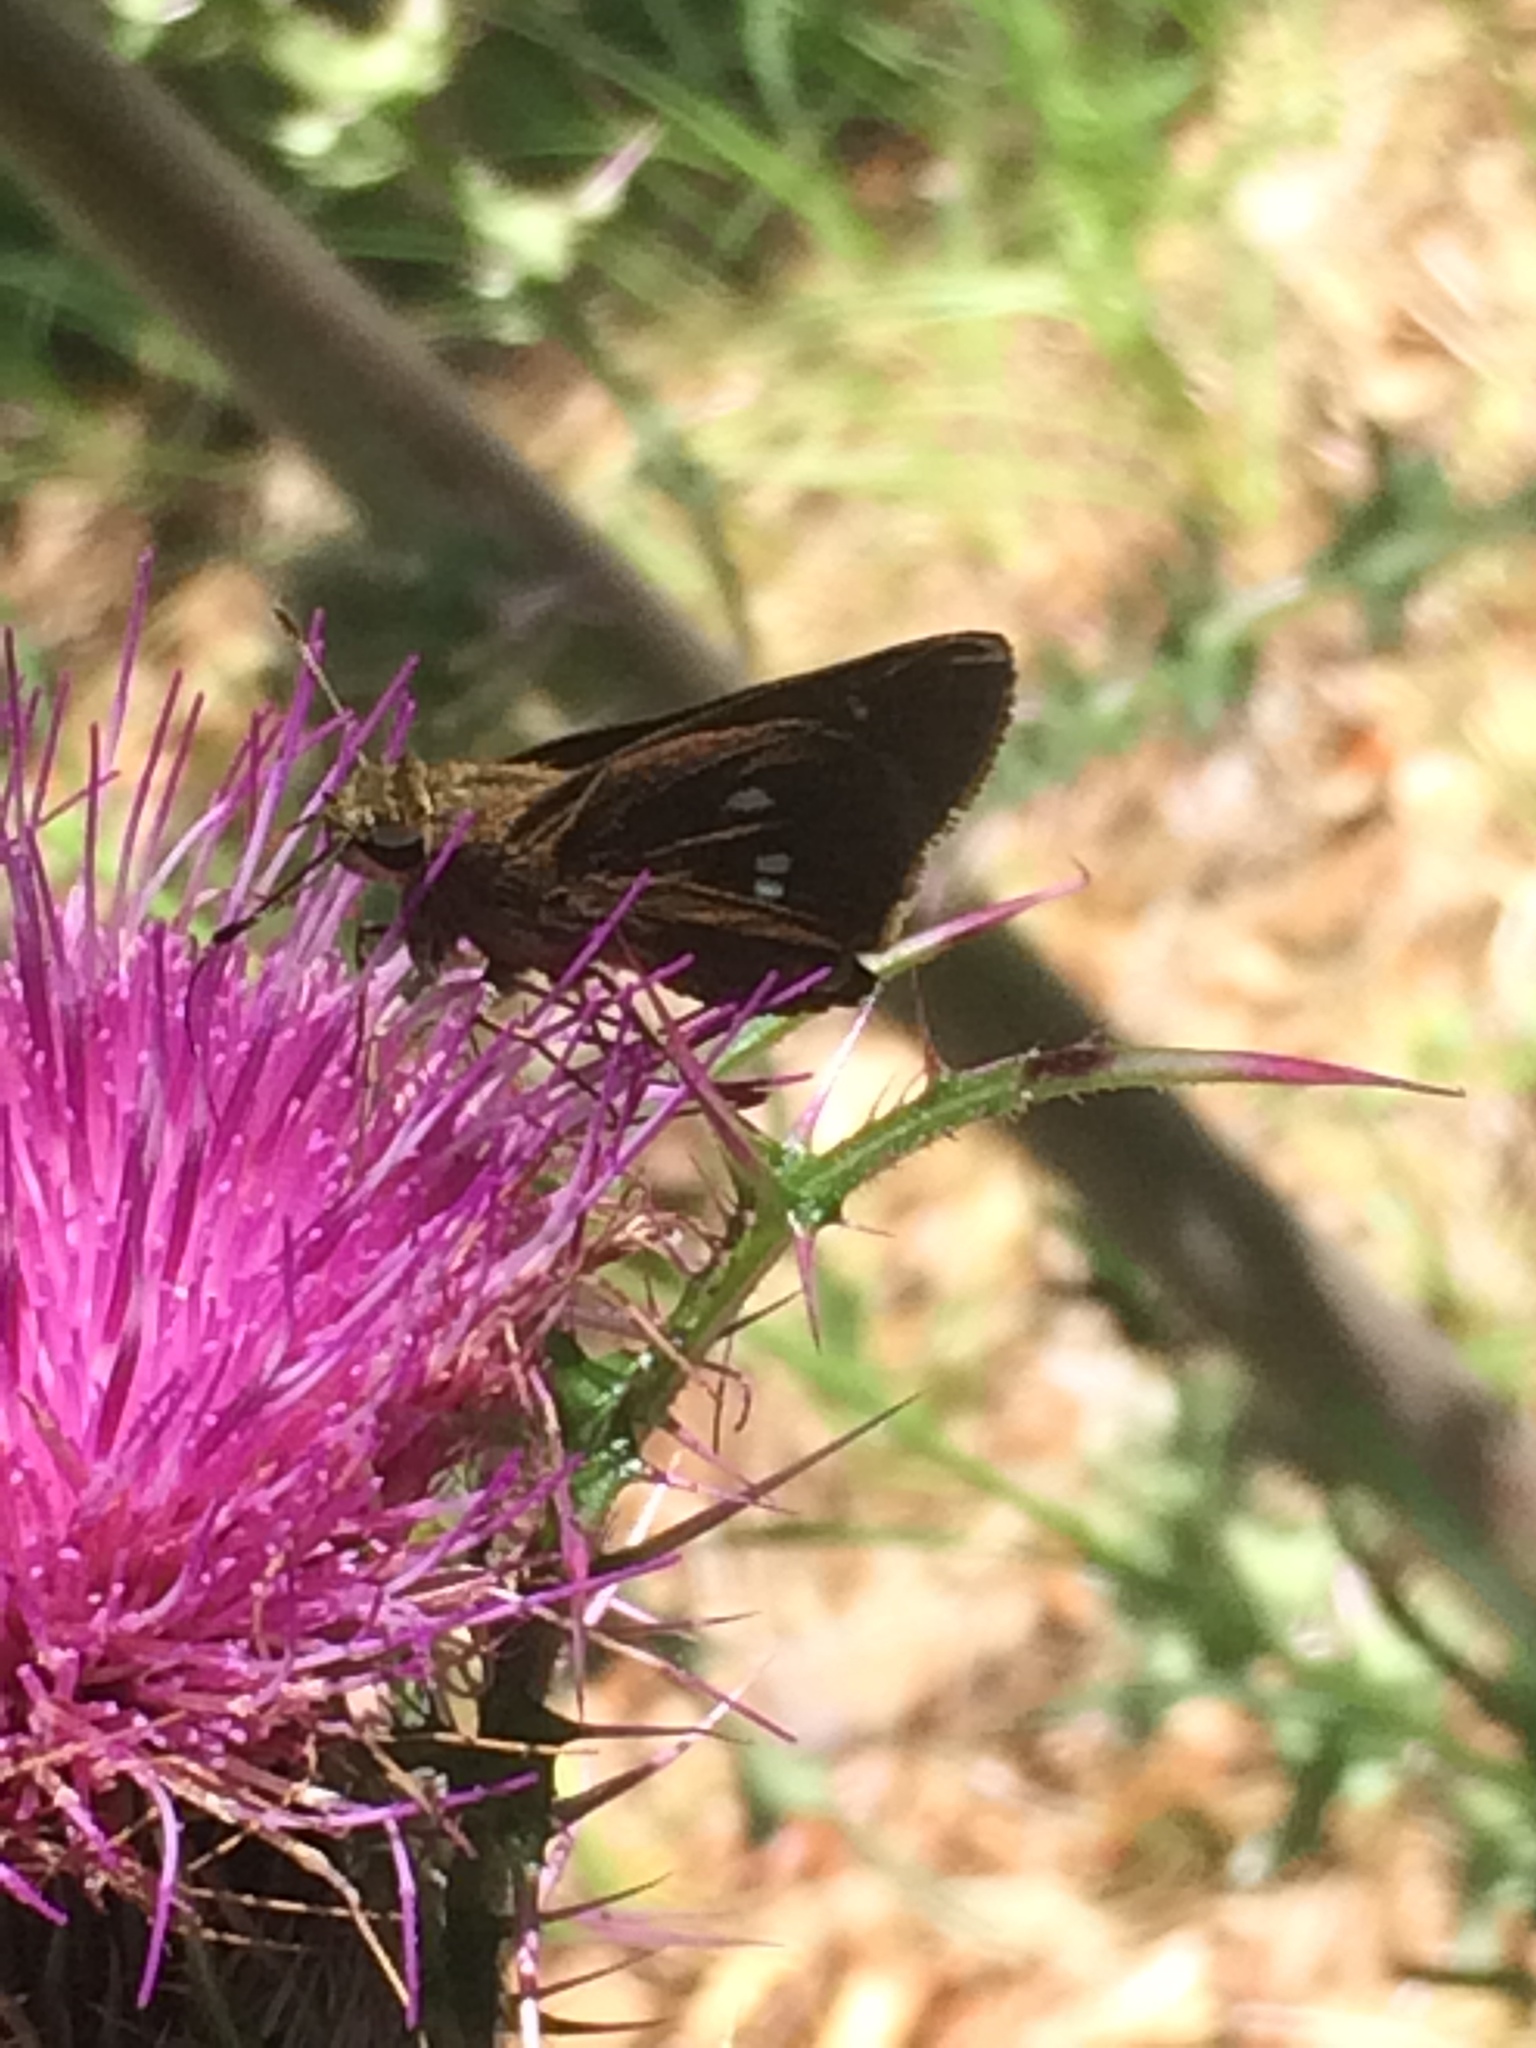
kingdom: Animalia
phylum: Arthropoda
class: Insecta
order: Lepidoptera
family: Hesperiidae
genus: Oligoria
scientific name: Oligoria maculata
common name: Twin-spot skipper
